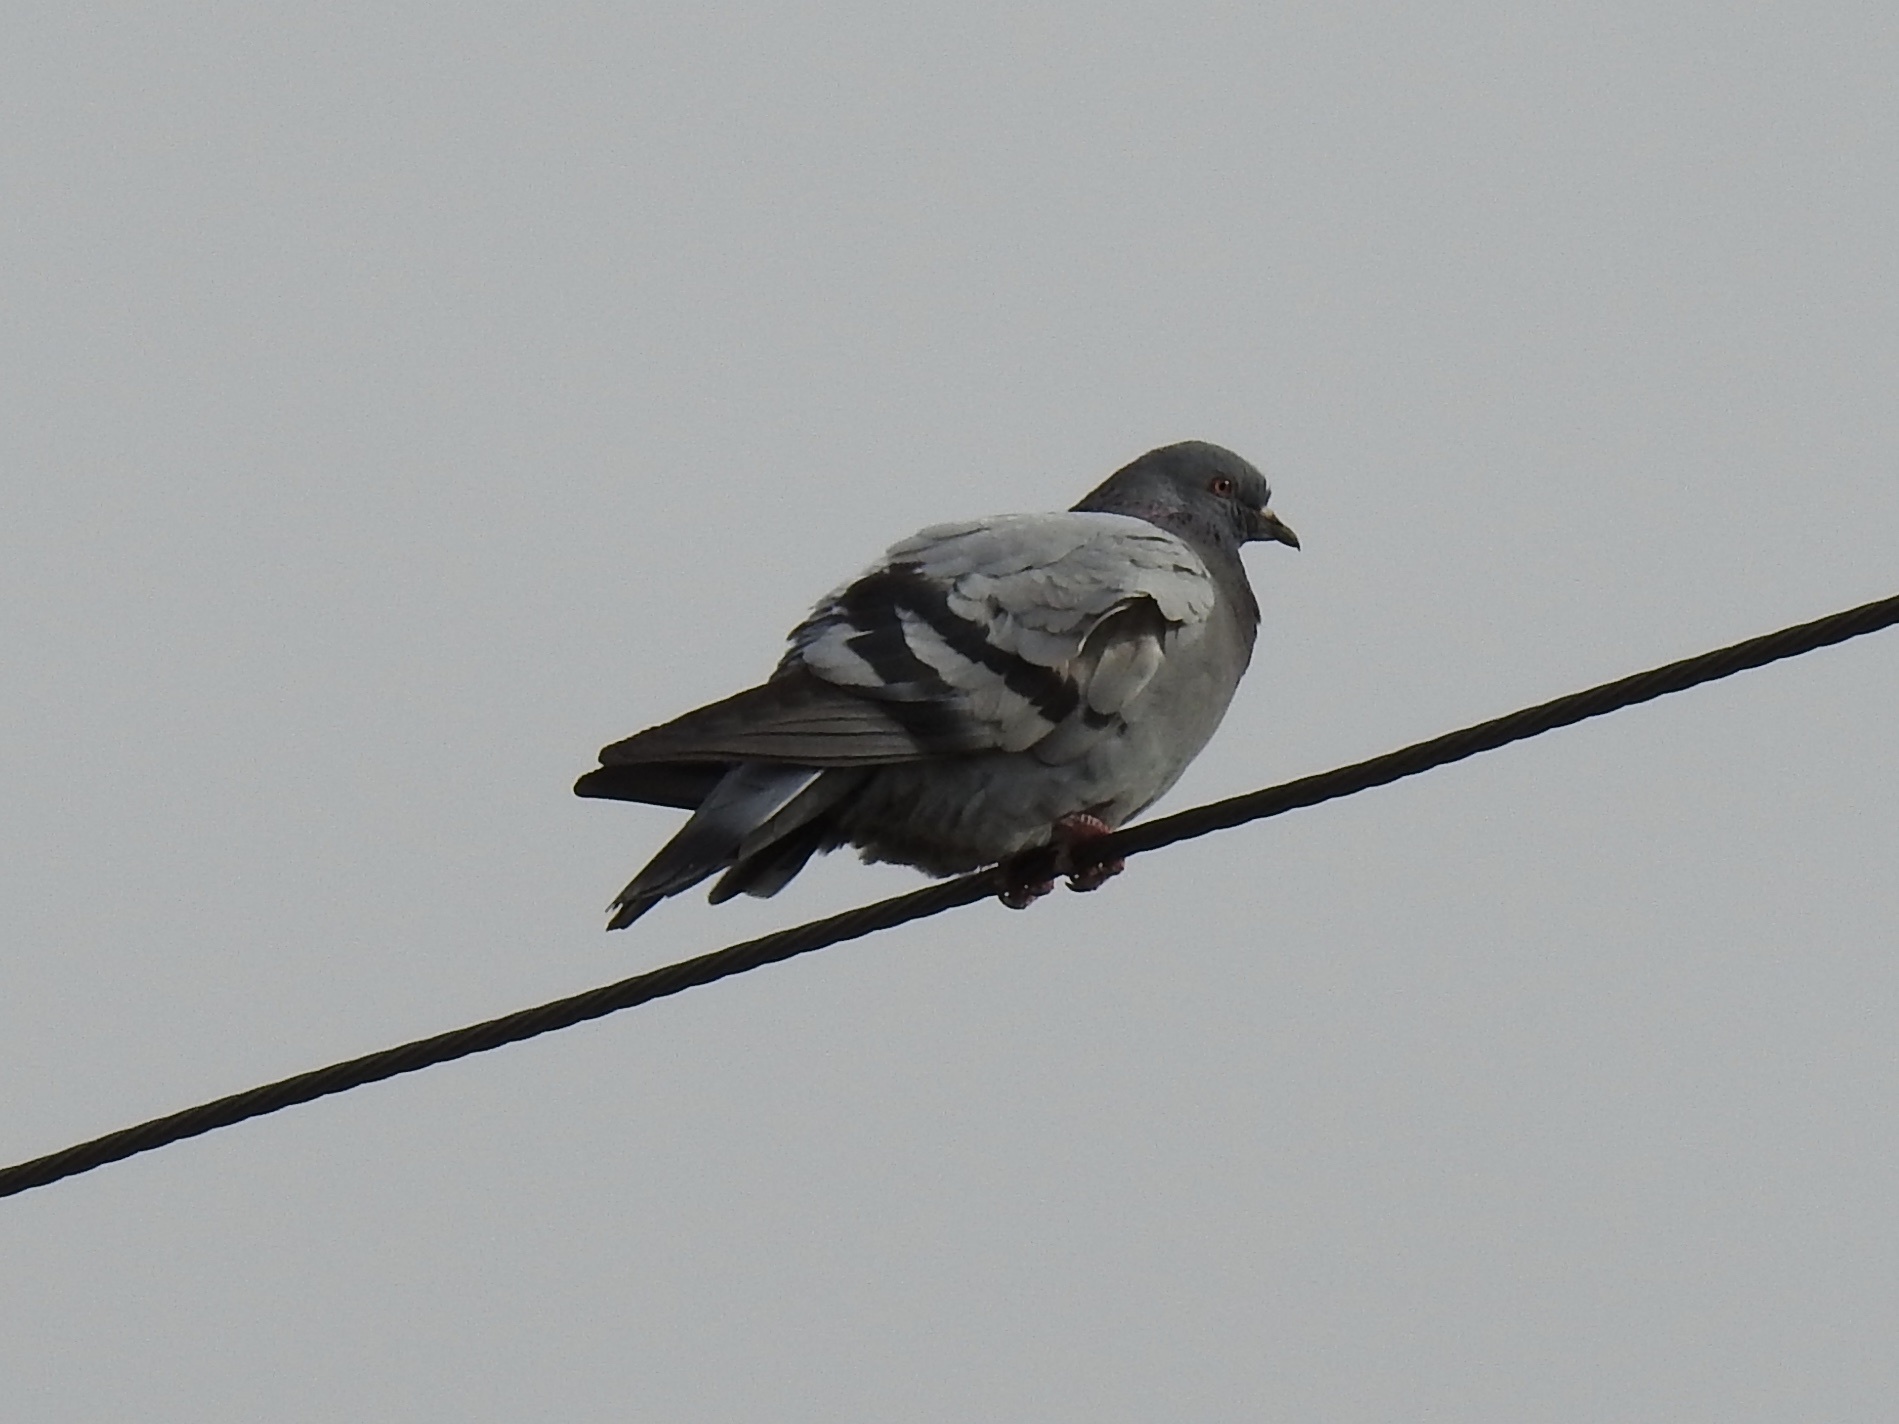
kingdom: Animalia
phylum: Chordata
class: Aves
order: Columbiformes
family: Columbidae
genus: Columba
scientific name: Columba livia
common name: Rock pigeon
